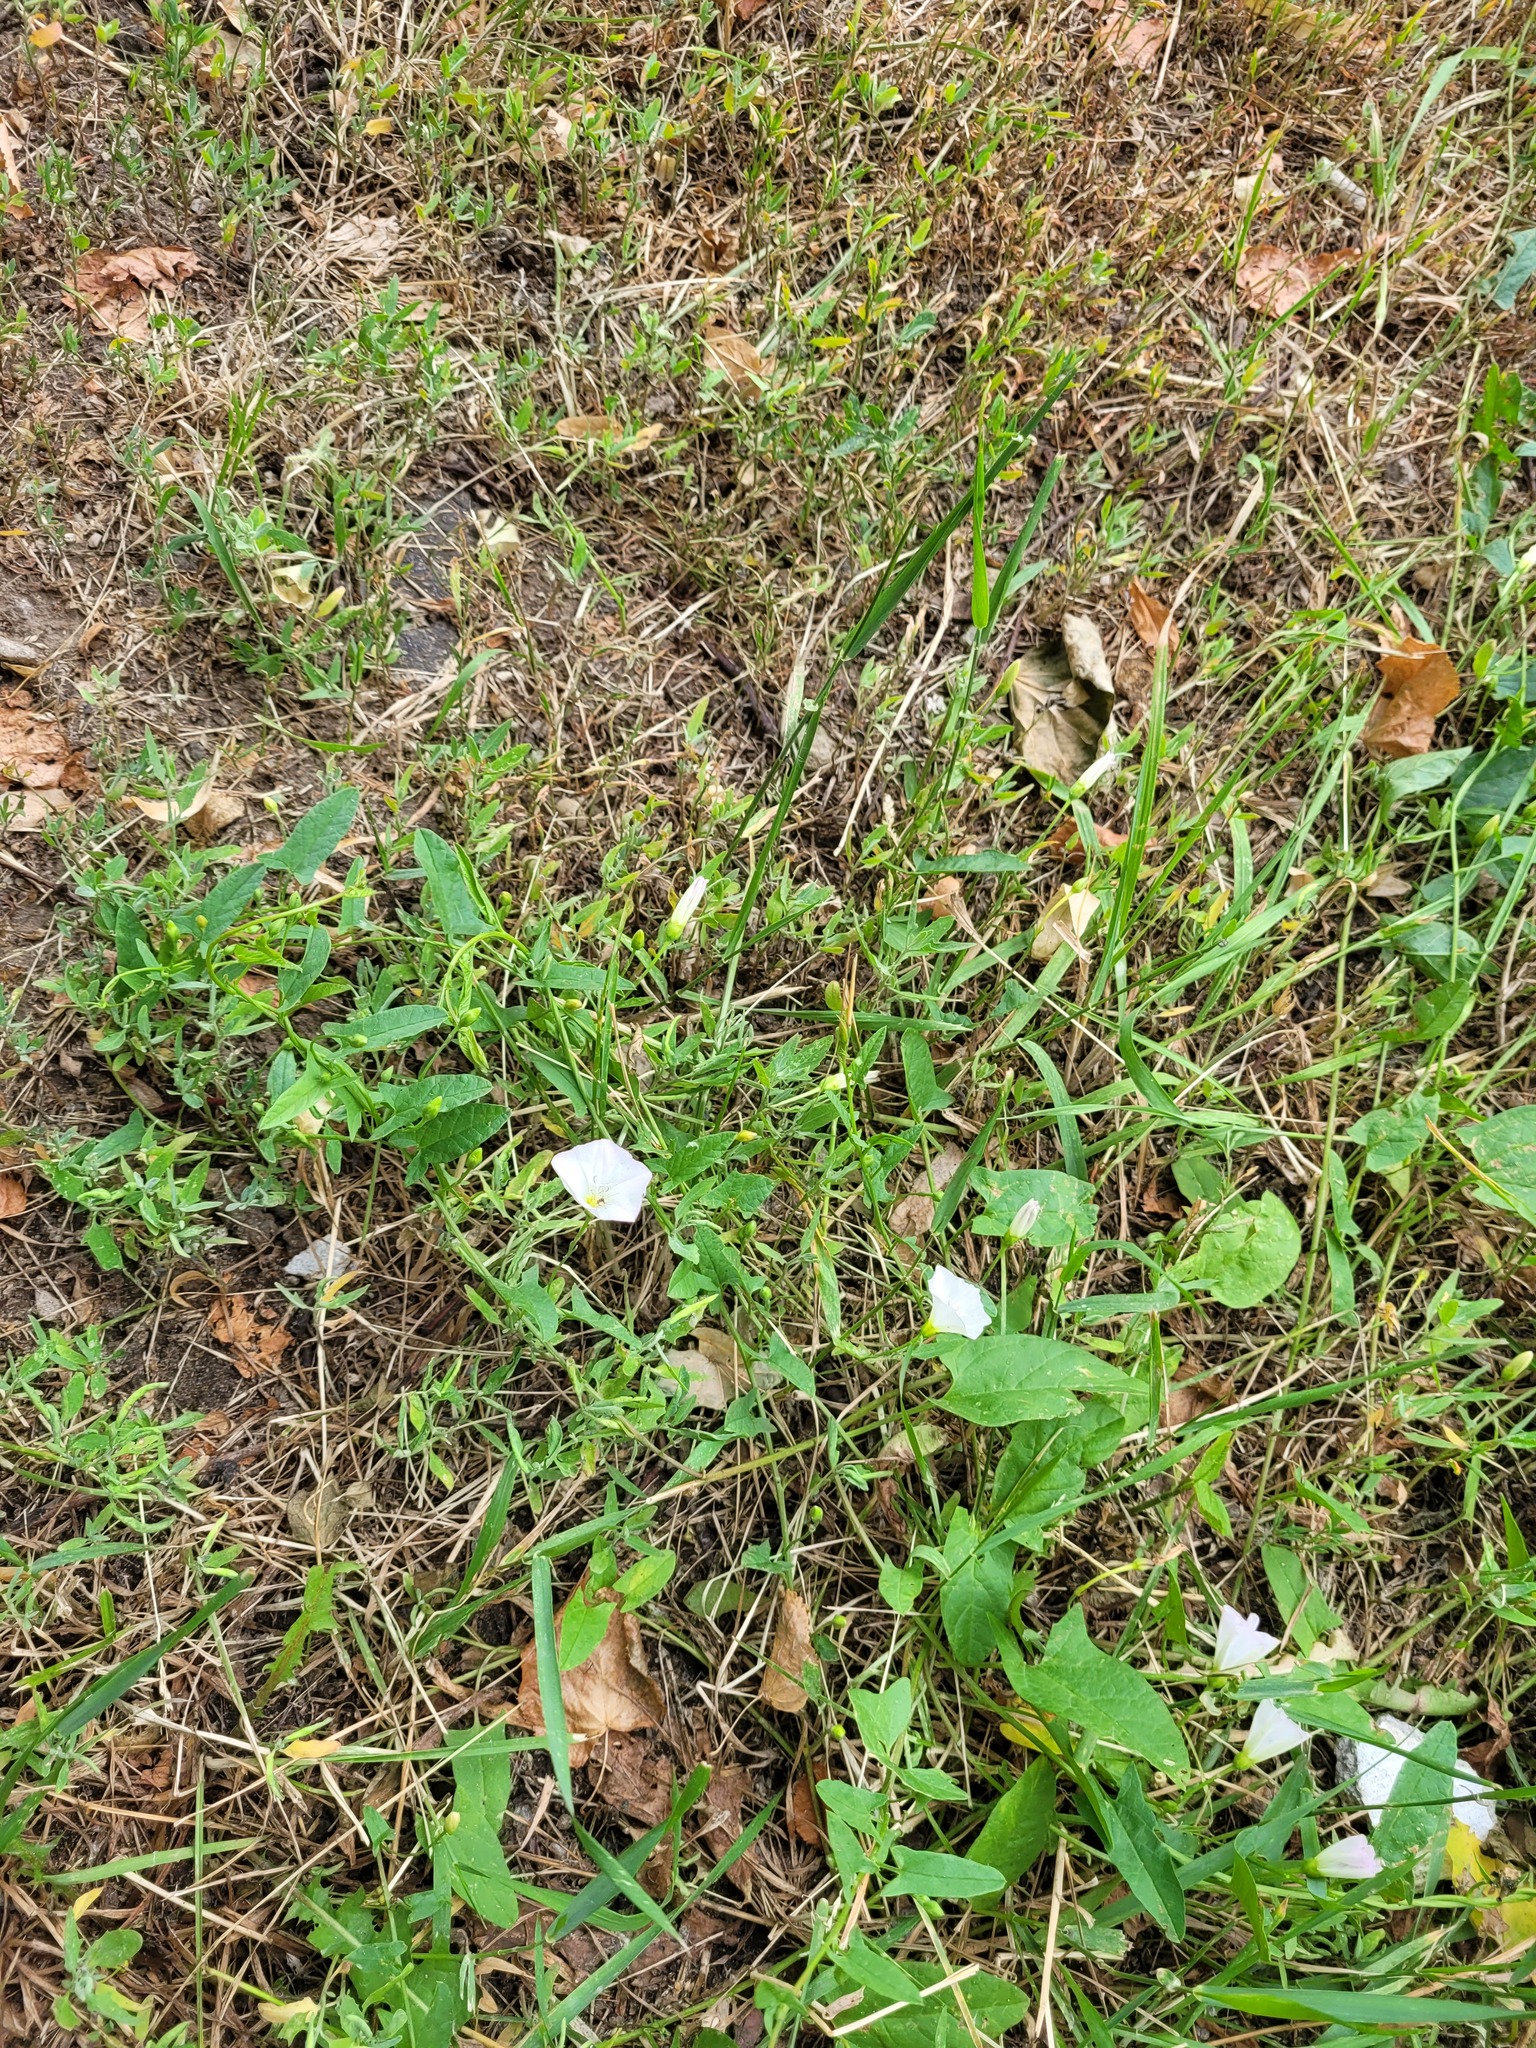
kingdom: Plantae
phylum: Tracheophyta
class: Magnoliopsida
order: Solanales
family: Convolvulaceae
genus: Convolvulus
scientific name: Convolvulus arvensis
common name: Field bindweed
